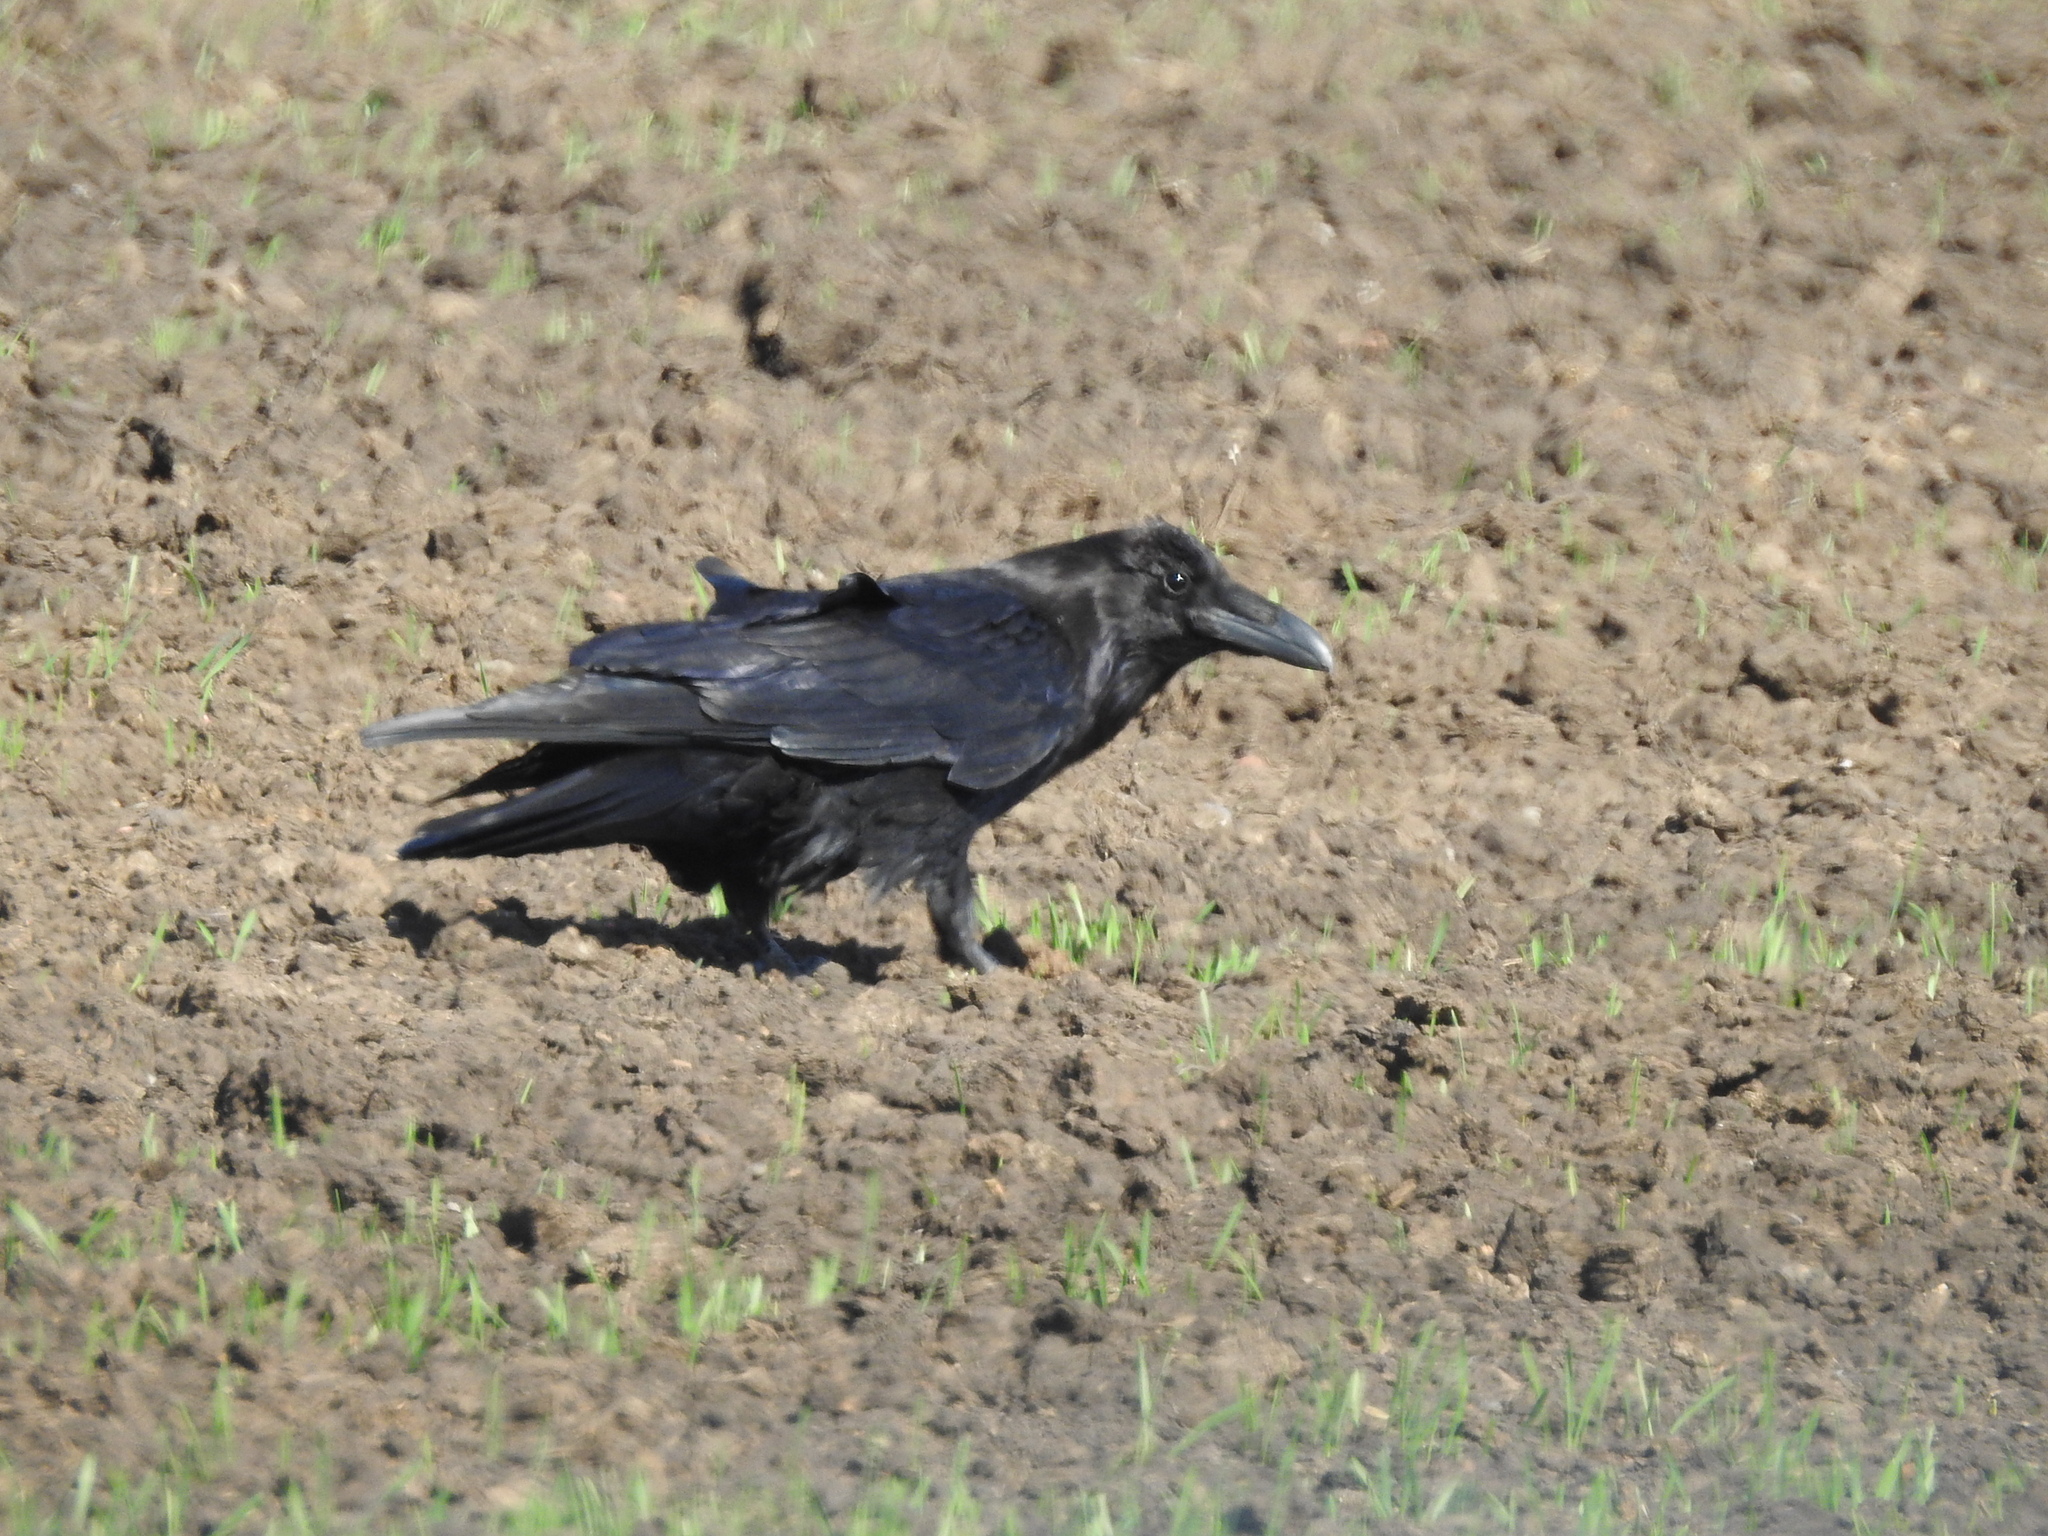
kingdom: Animalia
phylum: Chordata
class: Aves
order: Passeriformes
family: Corvidae
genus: Corvus
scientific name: Corvus corax
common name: Common raven
